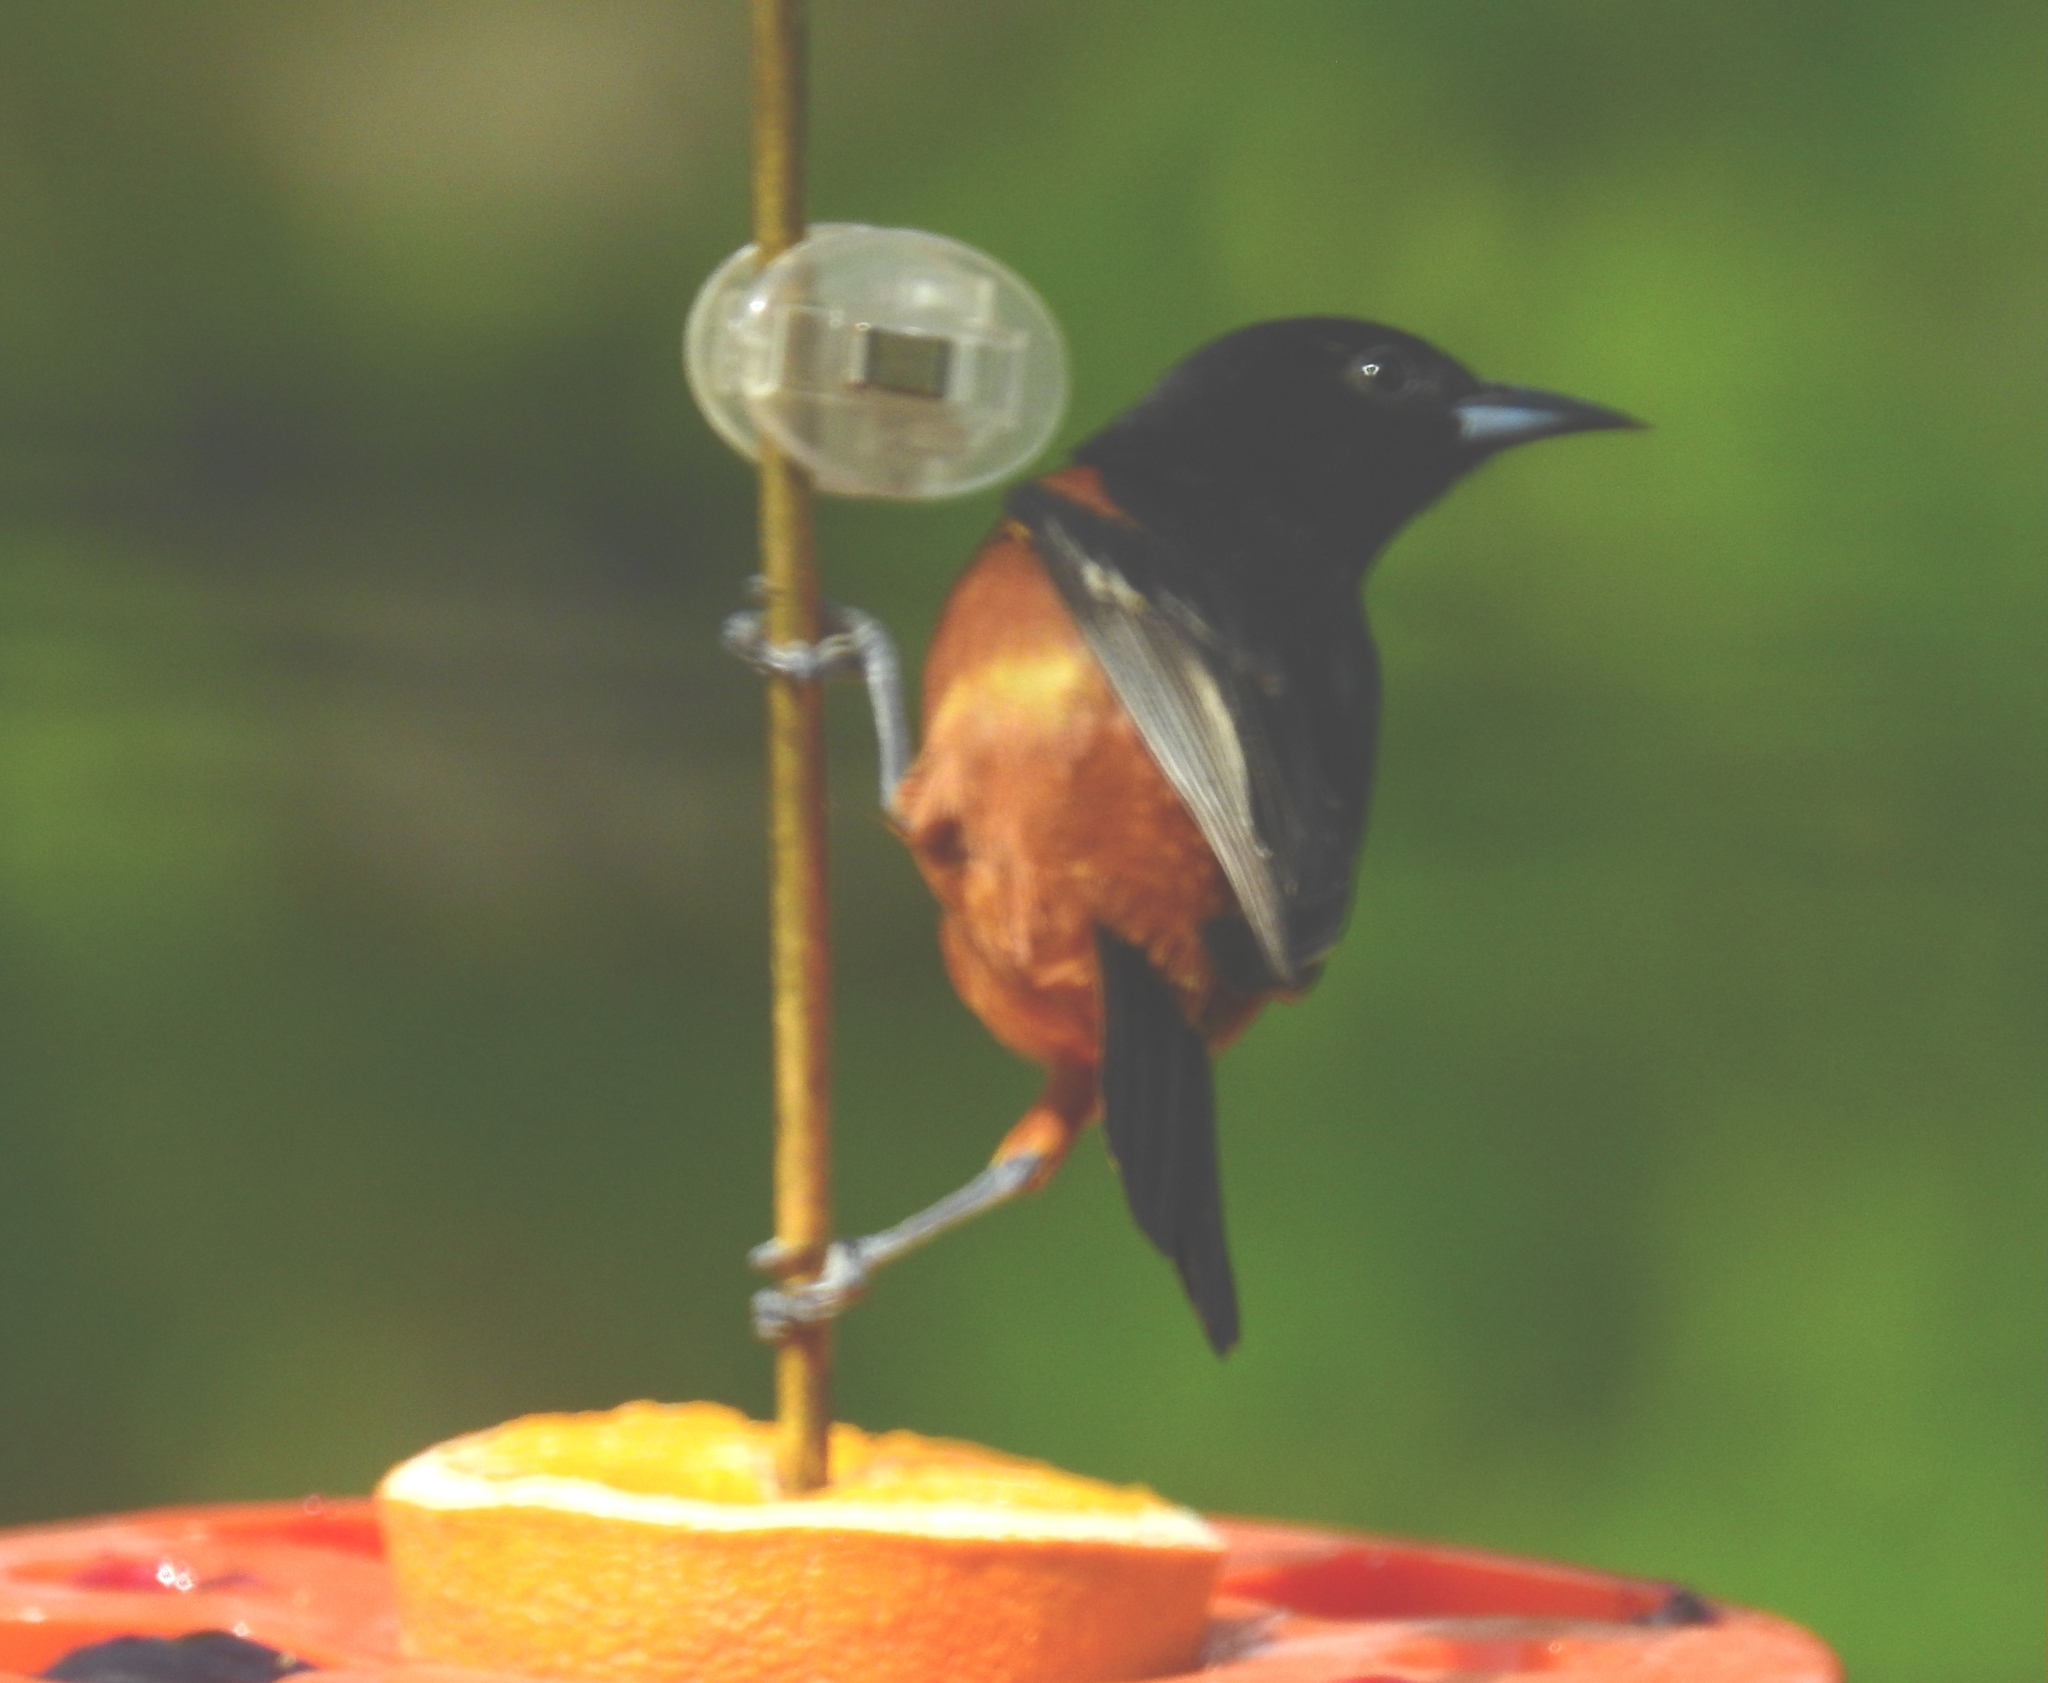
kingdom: Animalia
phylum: Chordata
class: Aves
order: Passeriformes
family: Icteridae
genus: Icterus
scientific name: Icterus spurius
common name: Orchard oriole
